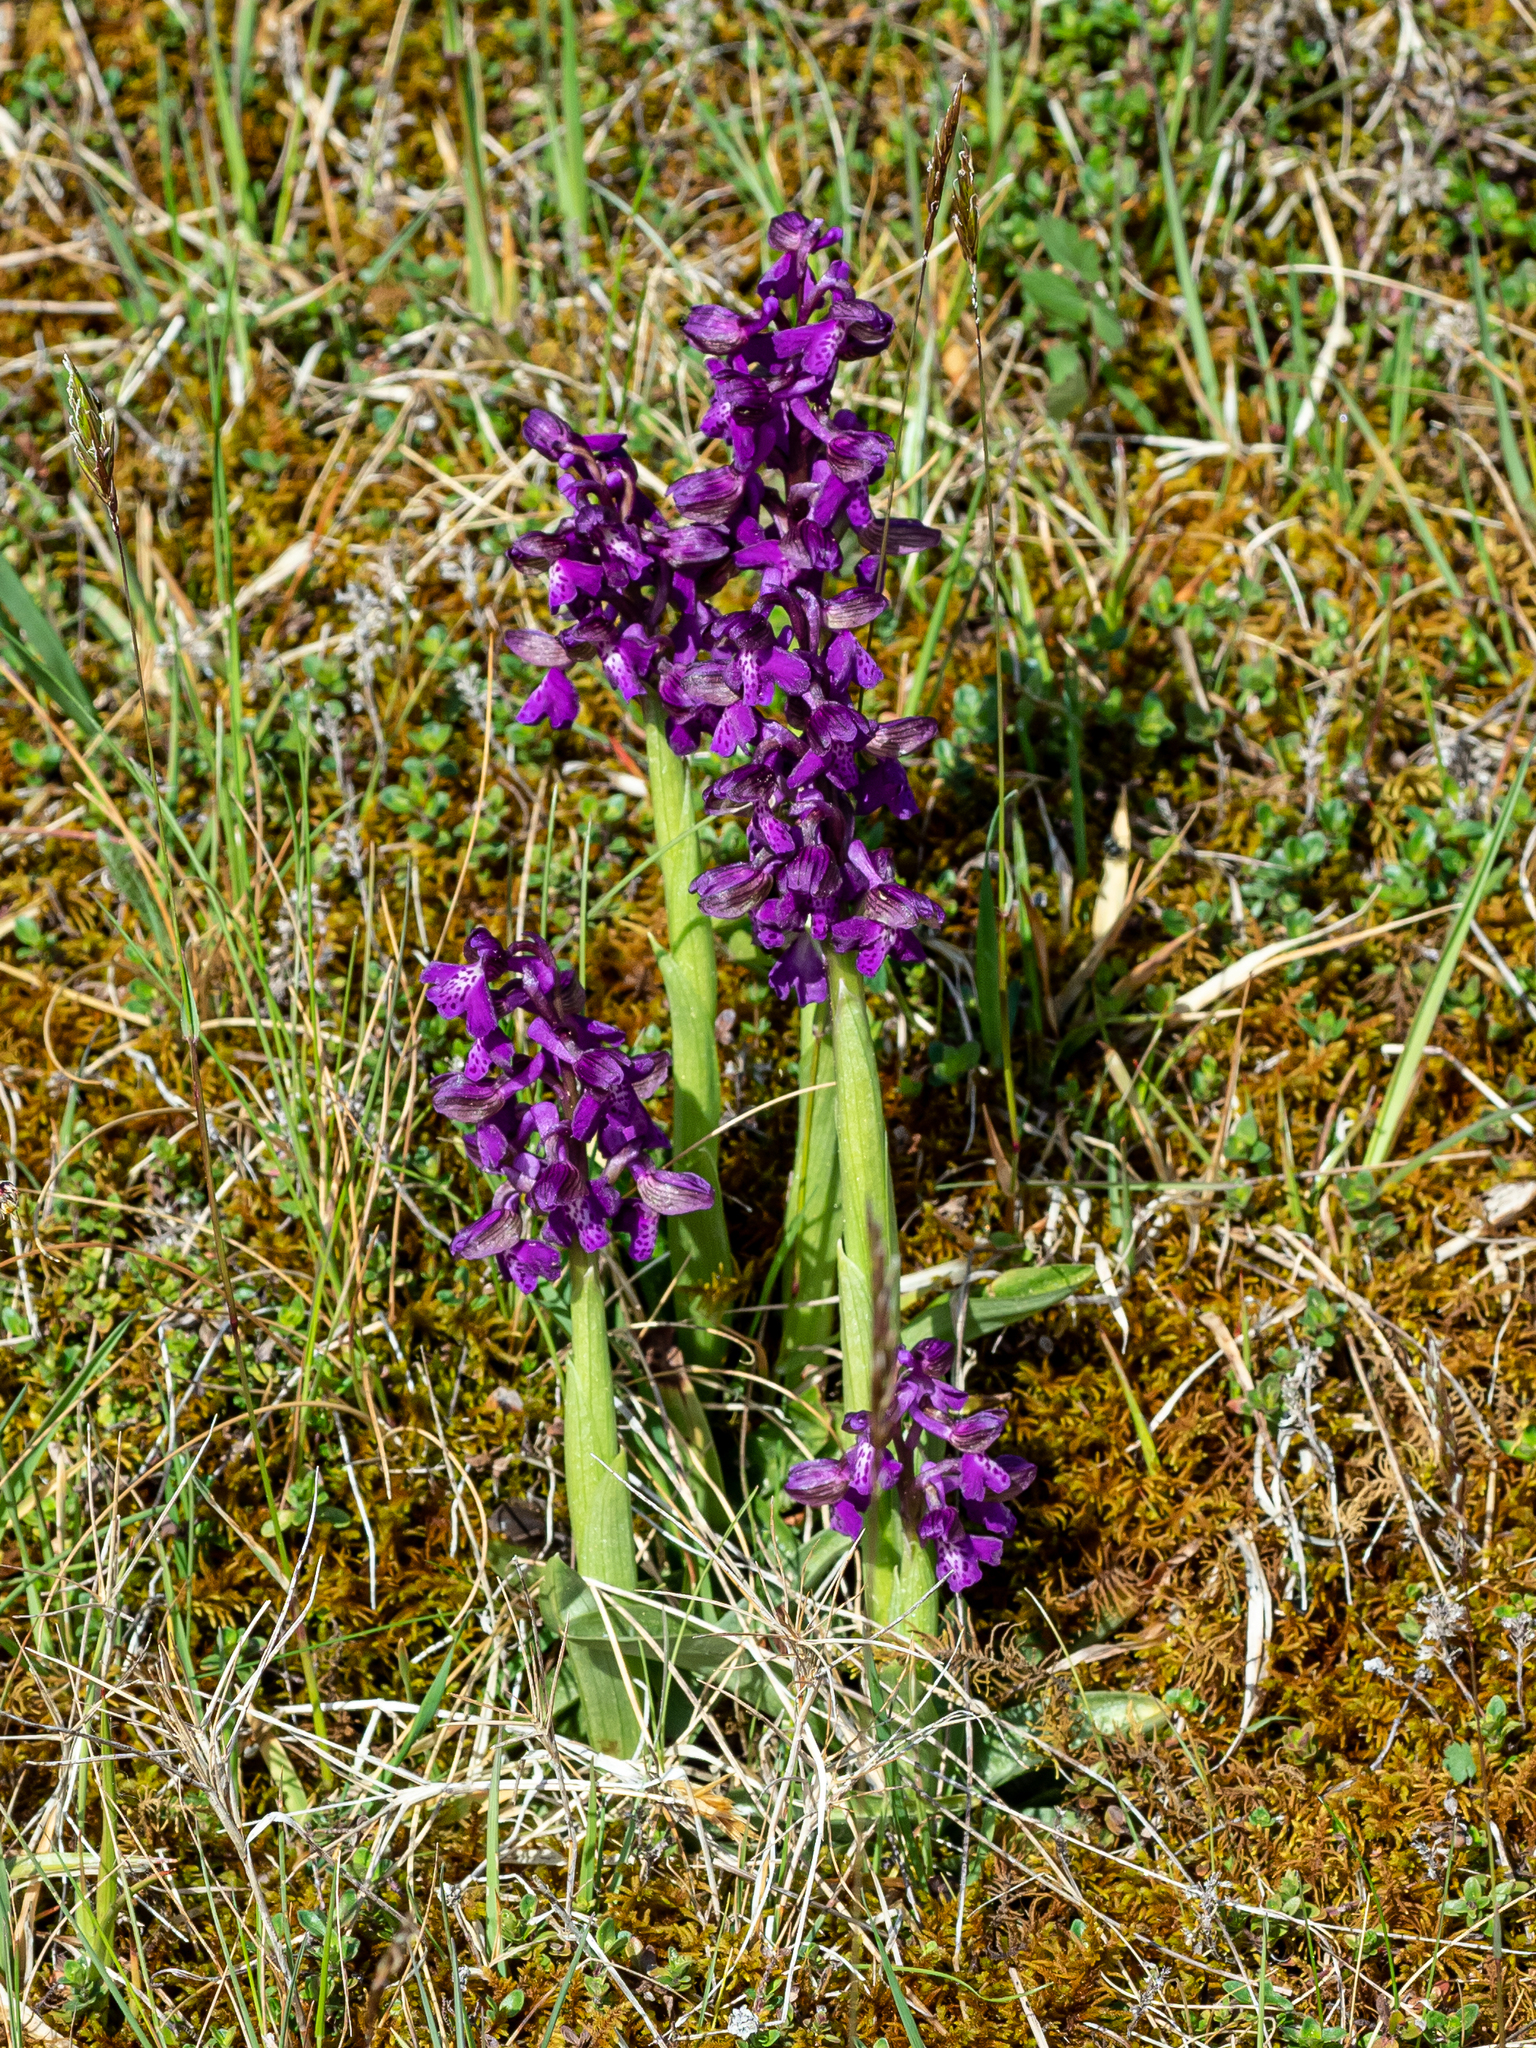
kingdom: Plantae
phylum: Tracheophyta
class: Liliopsida
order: Asparagales
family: Orchidaceae
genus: Anacamptis
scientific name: Anacamptis morio
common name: Green-winged orchid
